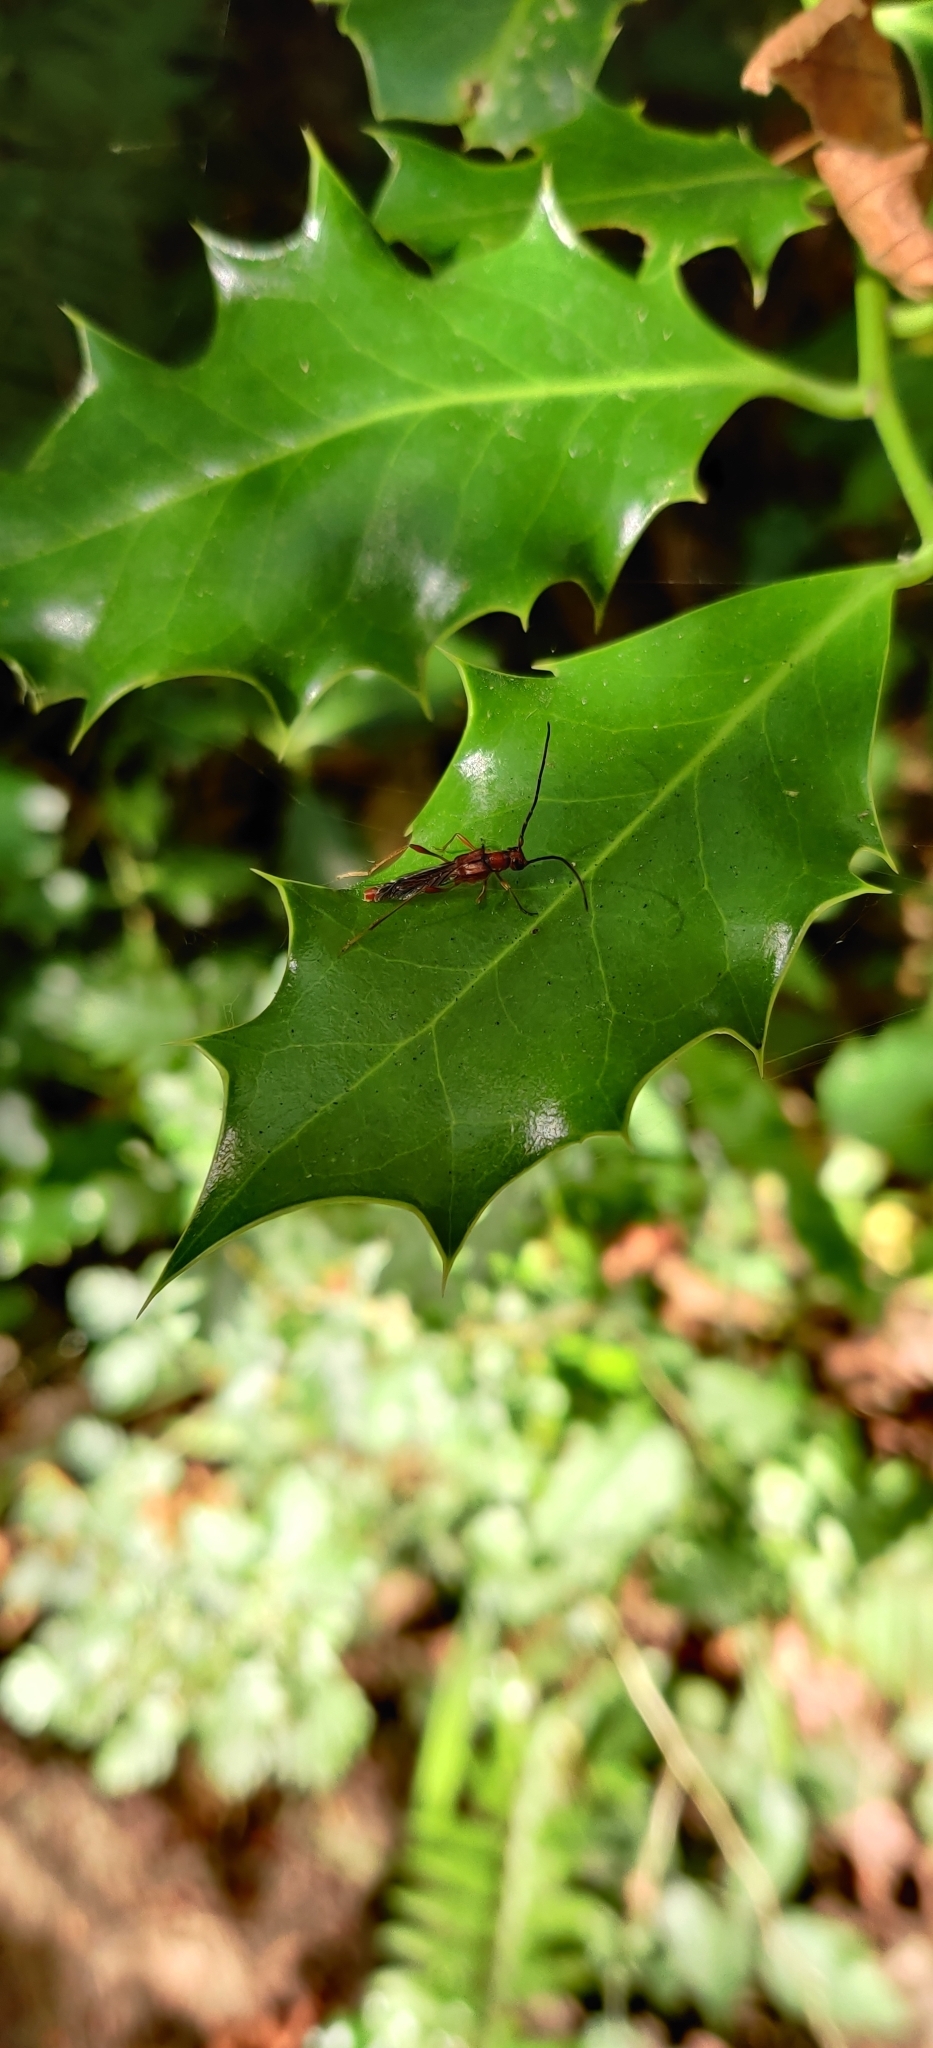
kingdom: Plantae
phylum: Tracheophyta
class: Magnoliopsida
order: Aquifoliales
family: Aquifoliaceae
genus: Ilex
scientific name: Ilex aquifolium
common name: English holly
